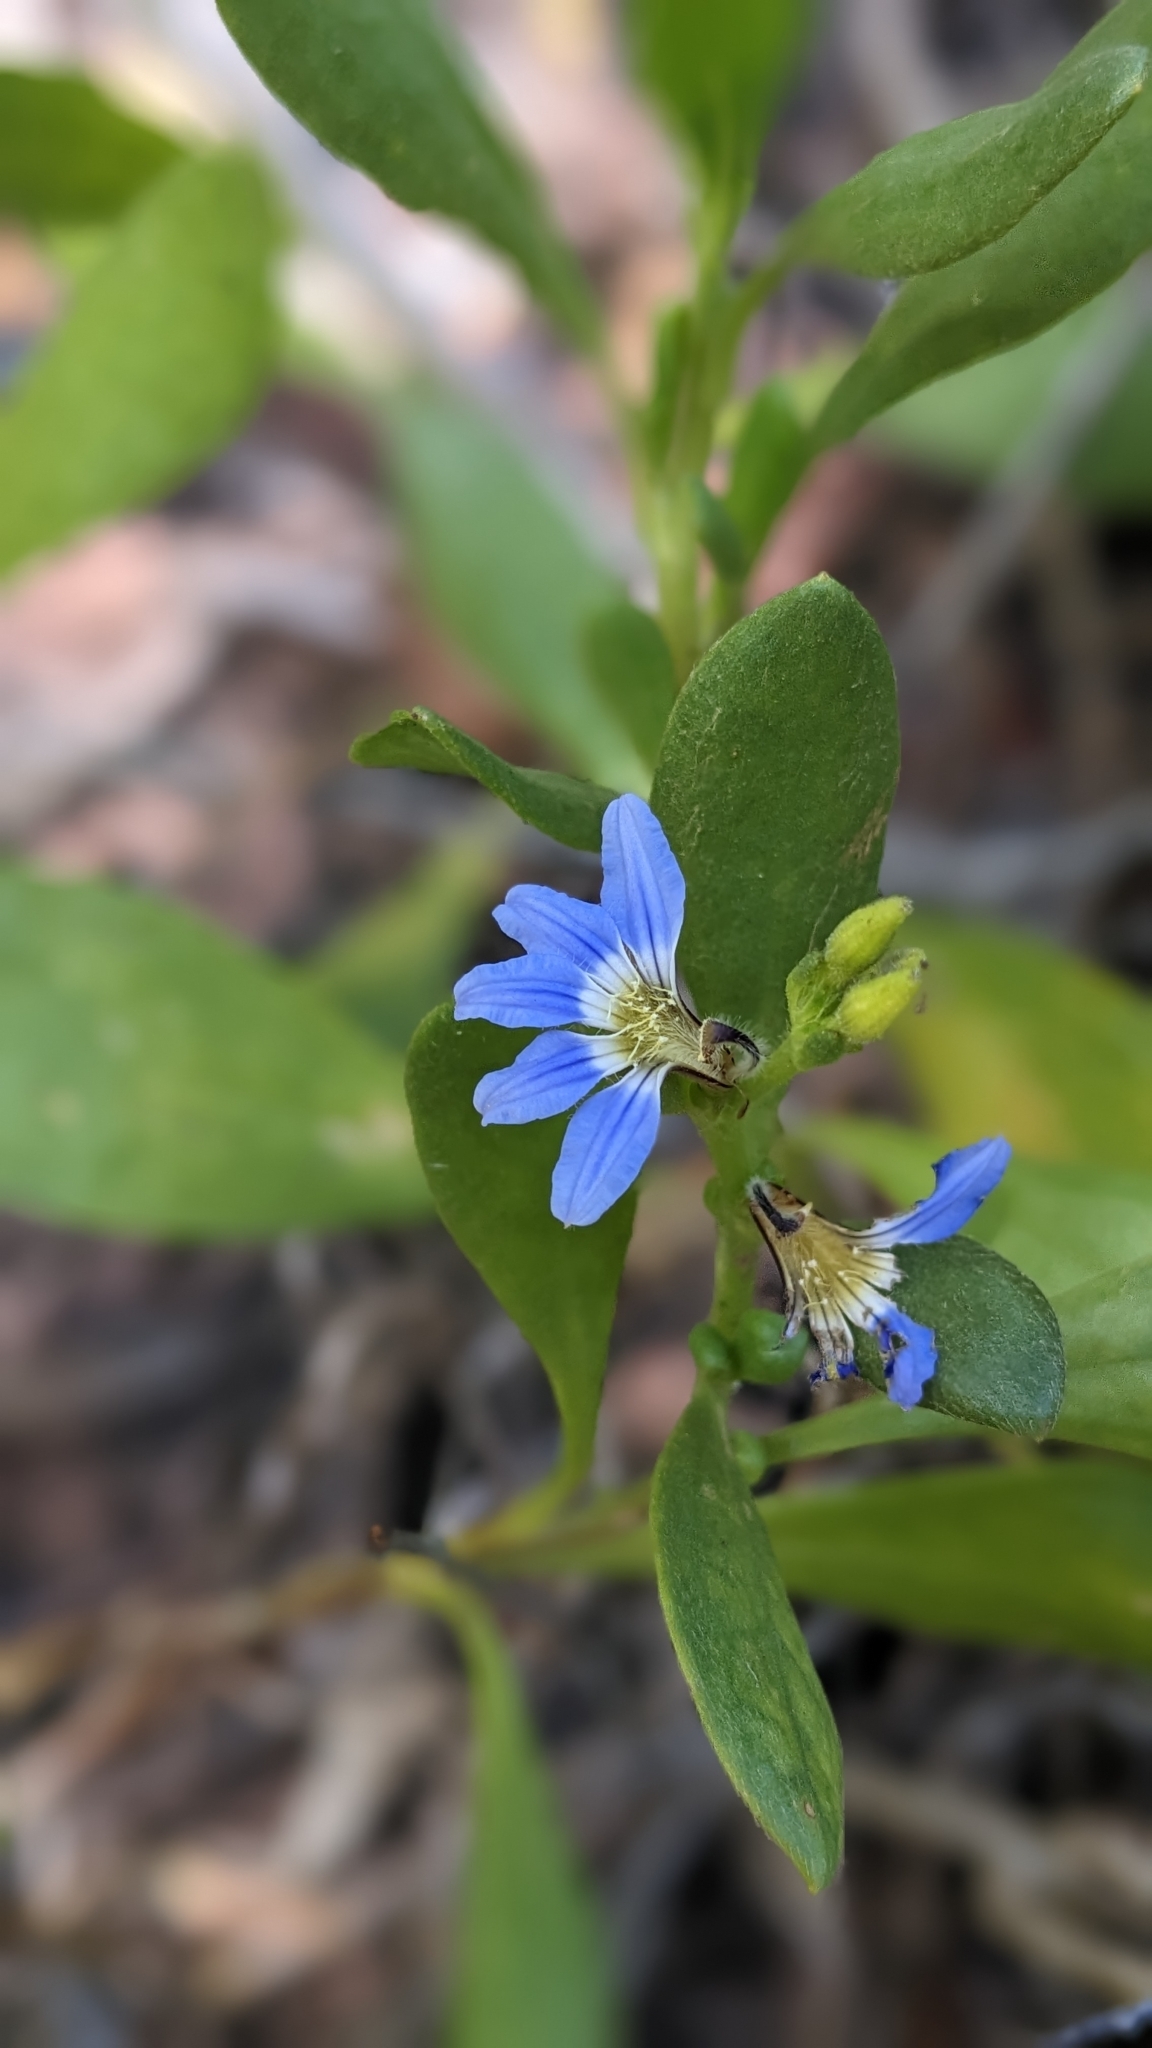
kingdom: Plantae
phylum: Tracheophyta
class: Magnoliopsida
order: Asterales
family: Goodeniaceae
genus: Scaevola
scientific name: Scaevola calendulacea
